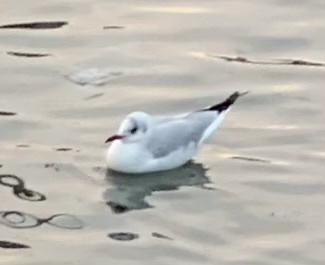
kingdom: Animalia
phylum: Chordata
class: Aves
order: Charadriiformes
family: Laridae
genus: Chroicocephalus
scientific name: Chroicocephalus ridibundus
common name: Black-headed gull
